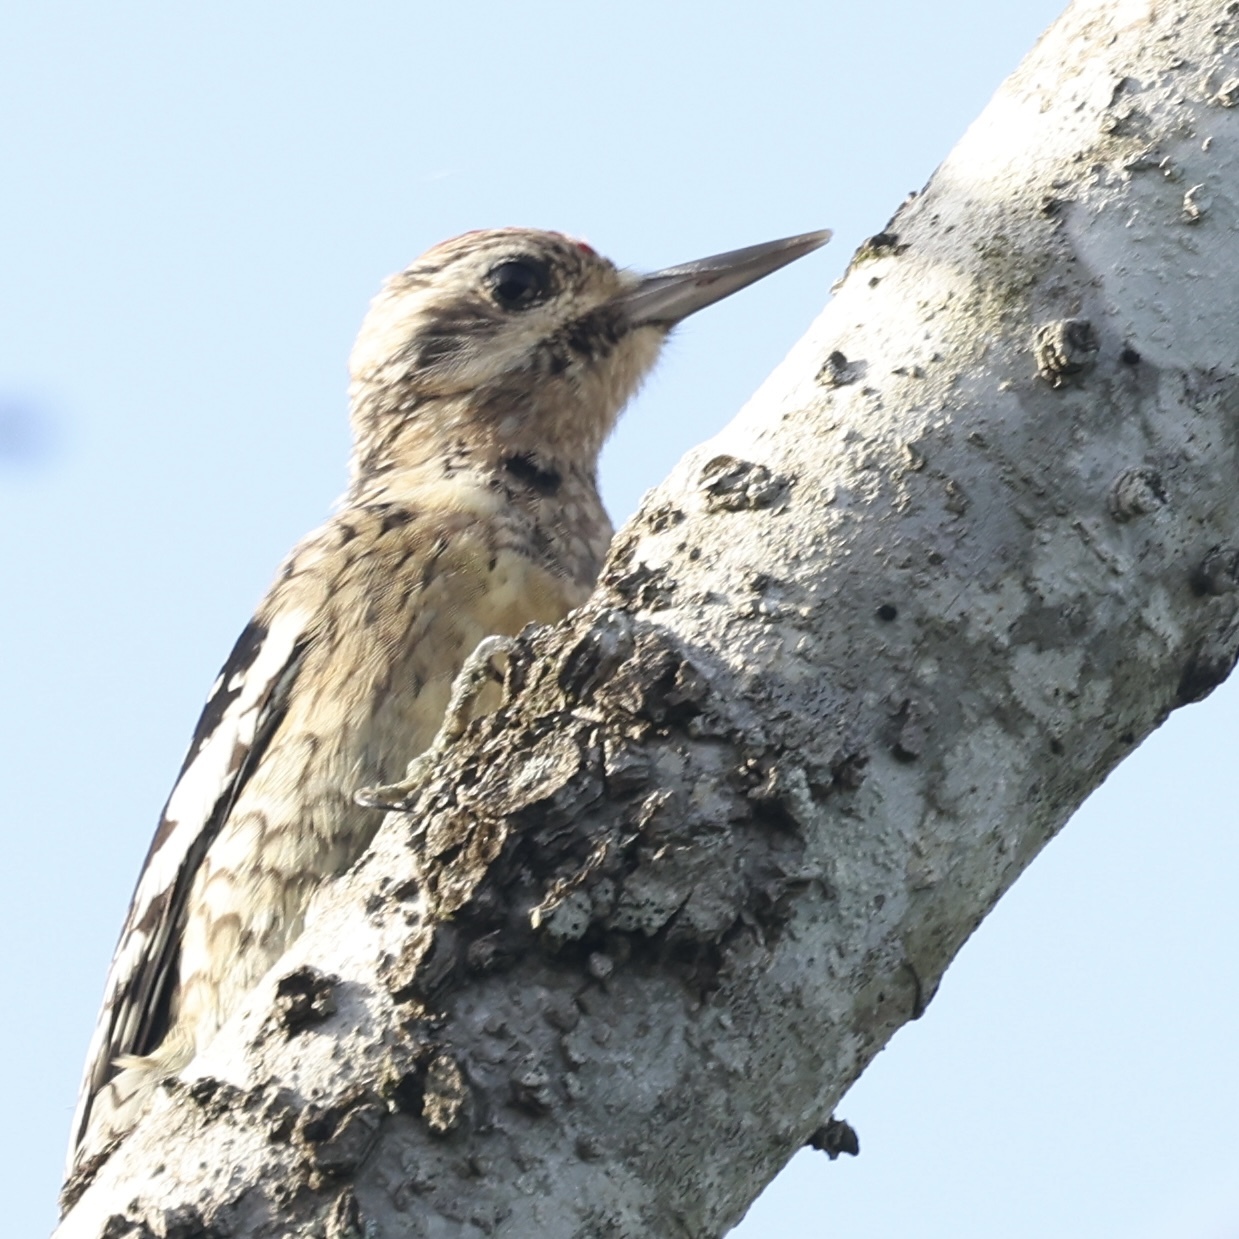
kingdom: Animalia
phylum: Chordata
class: Aves
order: Piciformes
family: Picidae
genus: Sphyrapicus
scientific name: Sphyrapicus varius
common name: Yellow-bellied sapsucker
